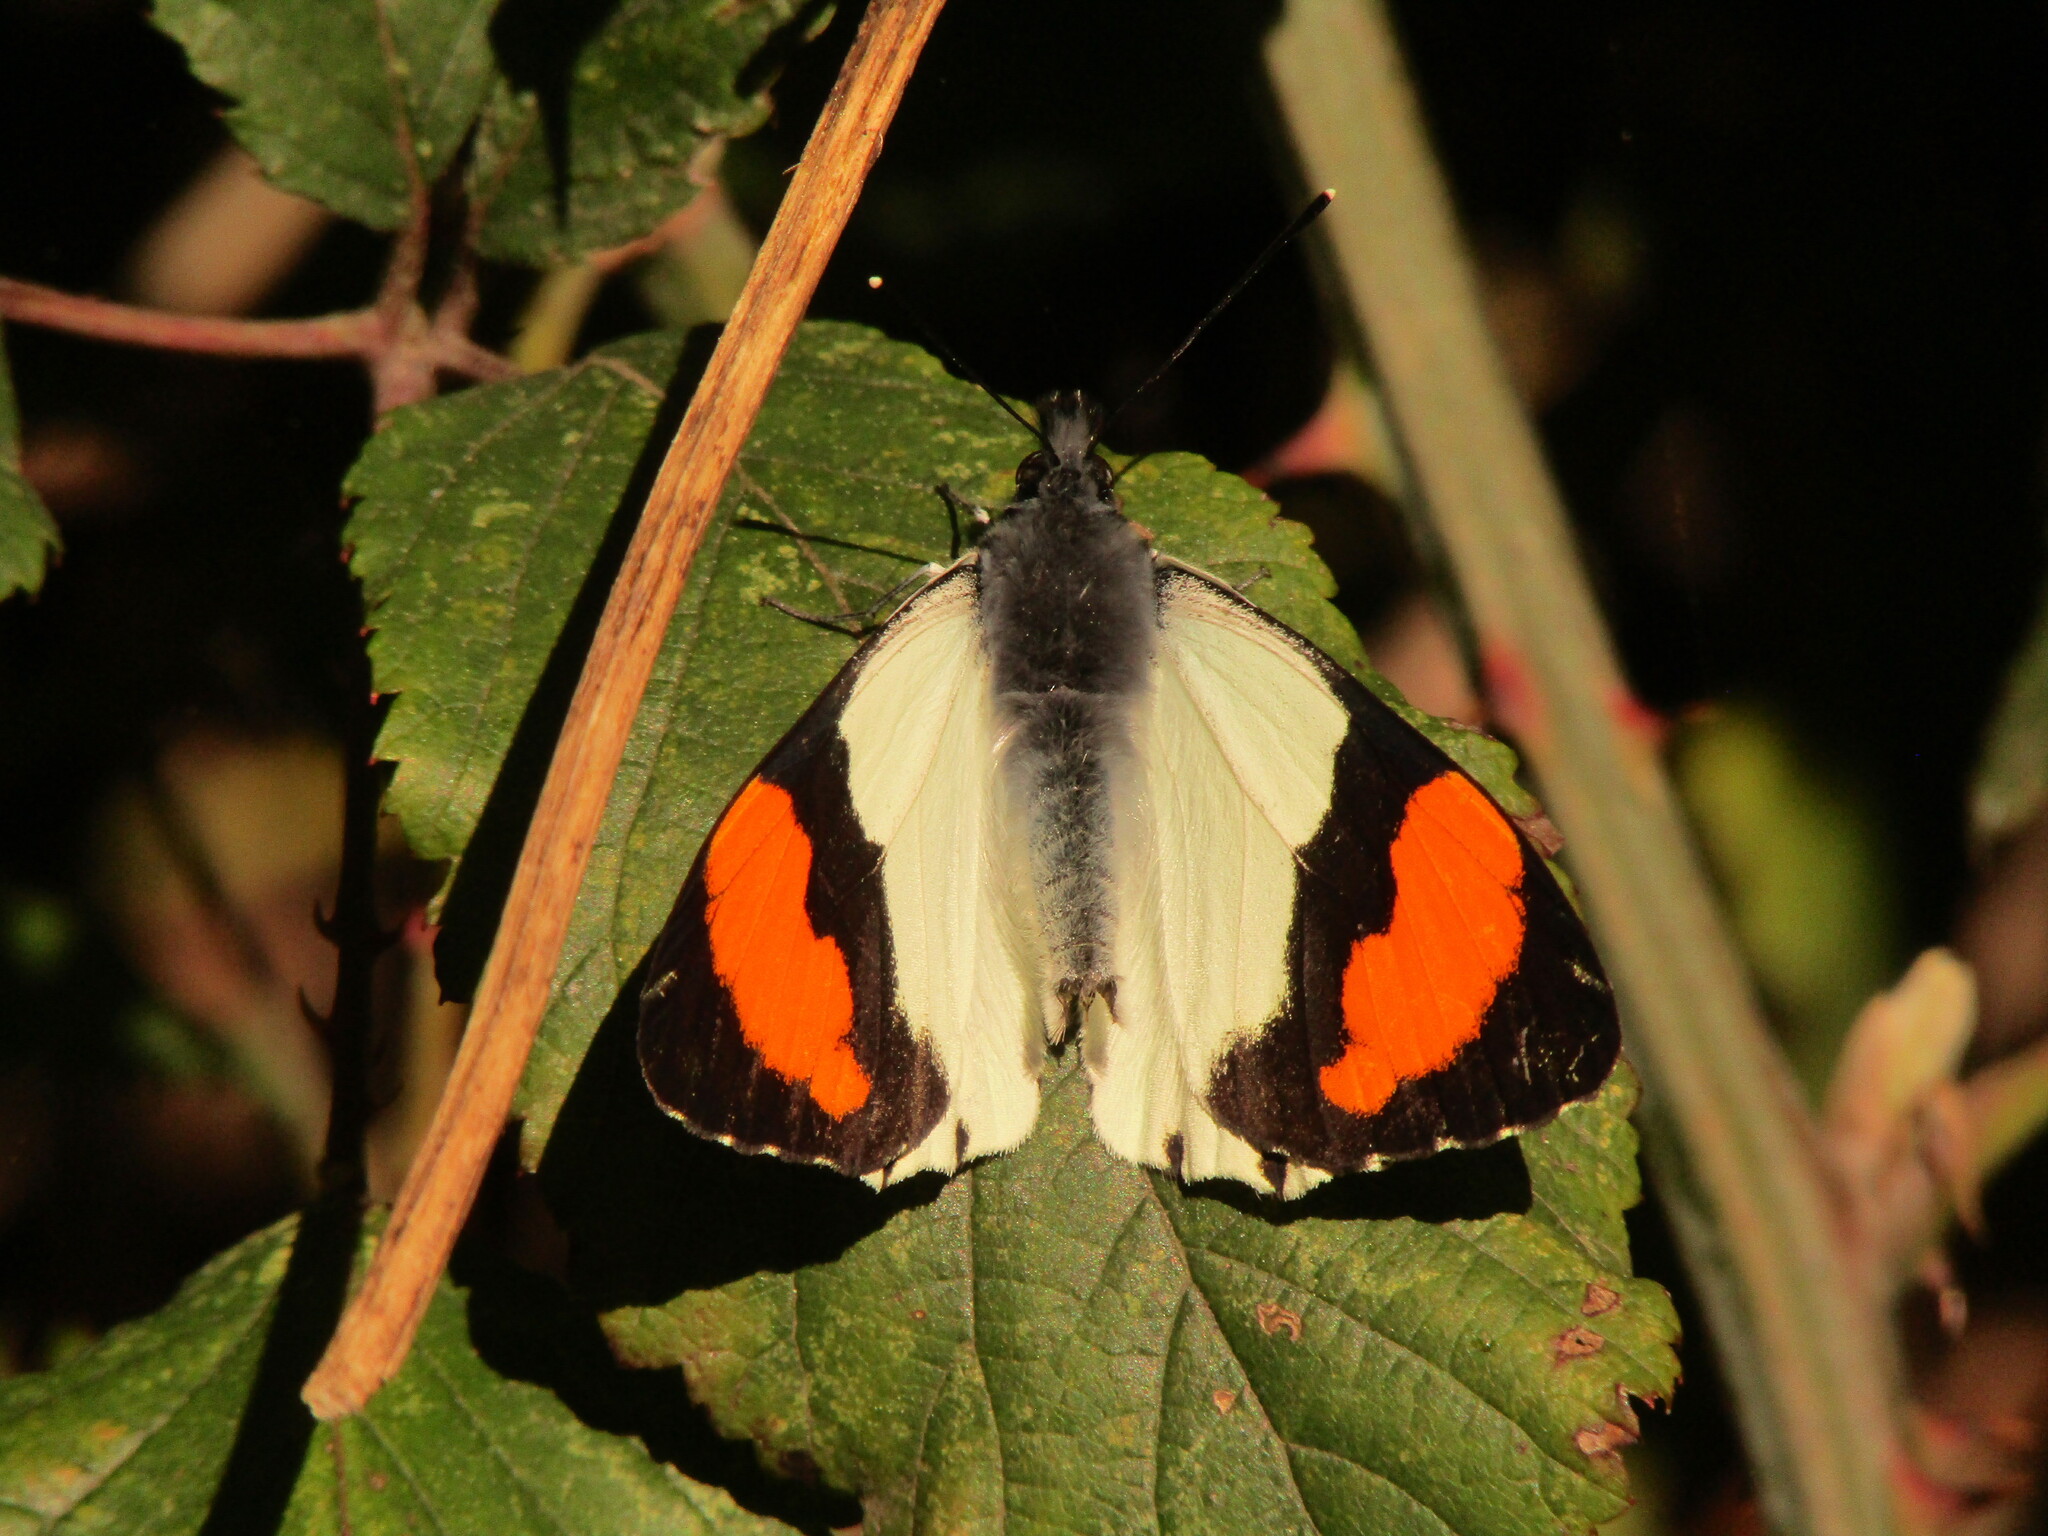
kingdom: Animalia
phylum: Arthropoda
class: Insecta
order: Lepidoptera
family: Pieridae
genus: Eroessa
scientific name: Eroessa chiliensis
